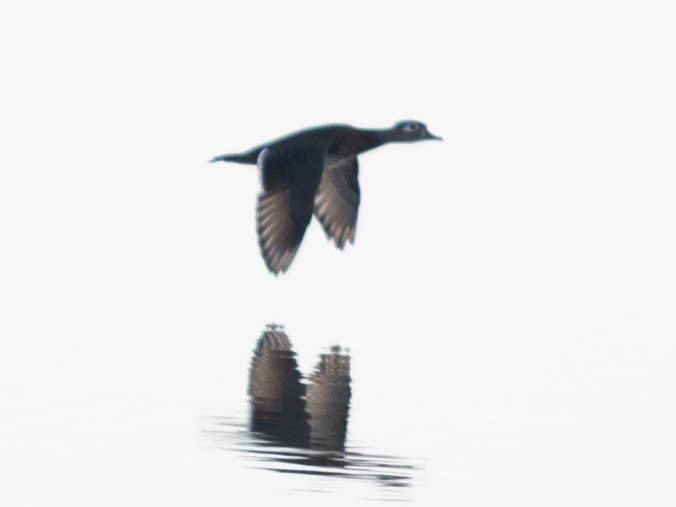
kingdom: Animalia
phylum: Chordata
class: Aves
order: Anseriformes
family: Anatidae
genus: Aix
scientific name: Aix sponsa
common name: Wood duck
